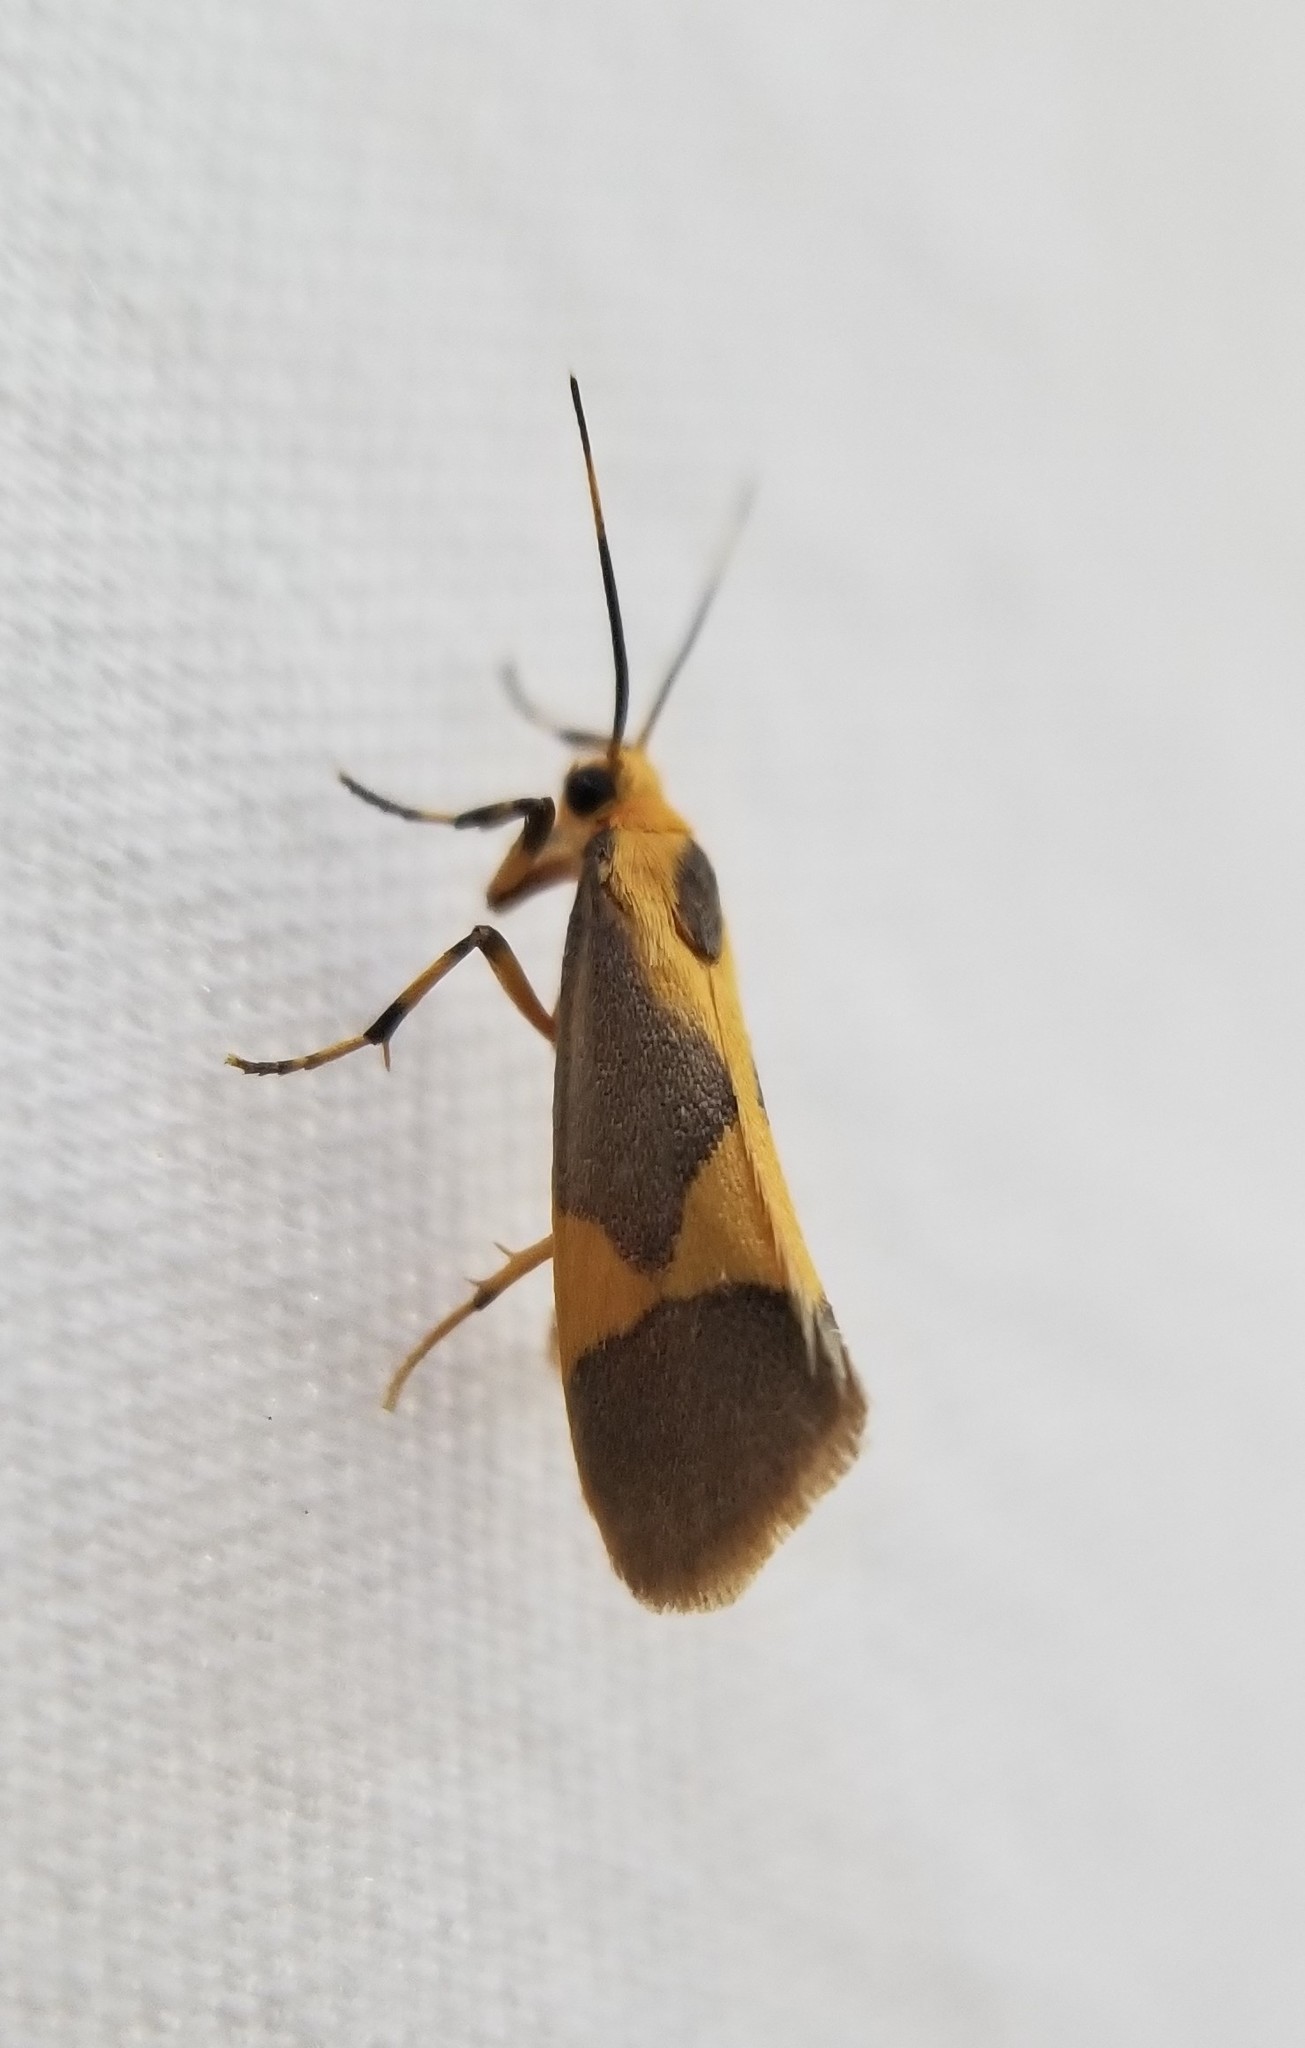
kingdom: Animalia
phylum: Arthropoda
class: Insecta
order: Lepidoptera
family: Erebidae
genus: Cisthene
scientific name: Cisthene unifascia
